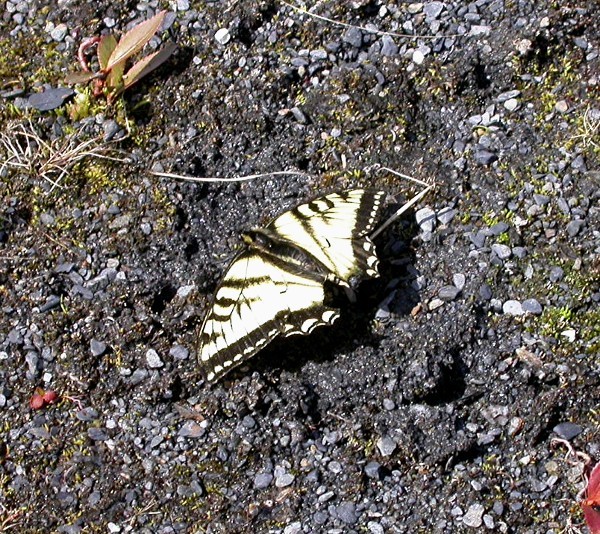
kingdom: Animalia
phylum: Arthropoda
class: Insecta
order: Lepidoptera
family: Papilionidae
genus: Papilio
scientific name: Papilio canadensis
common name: Canadian tiger swallowtail
